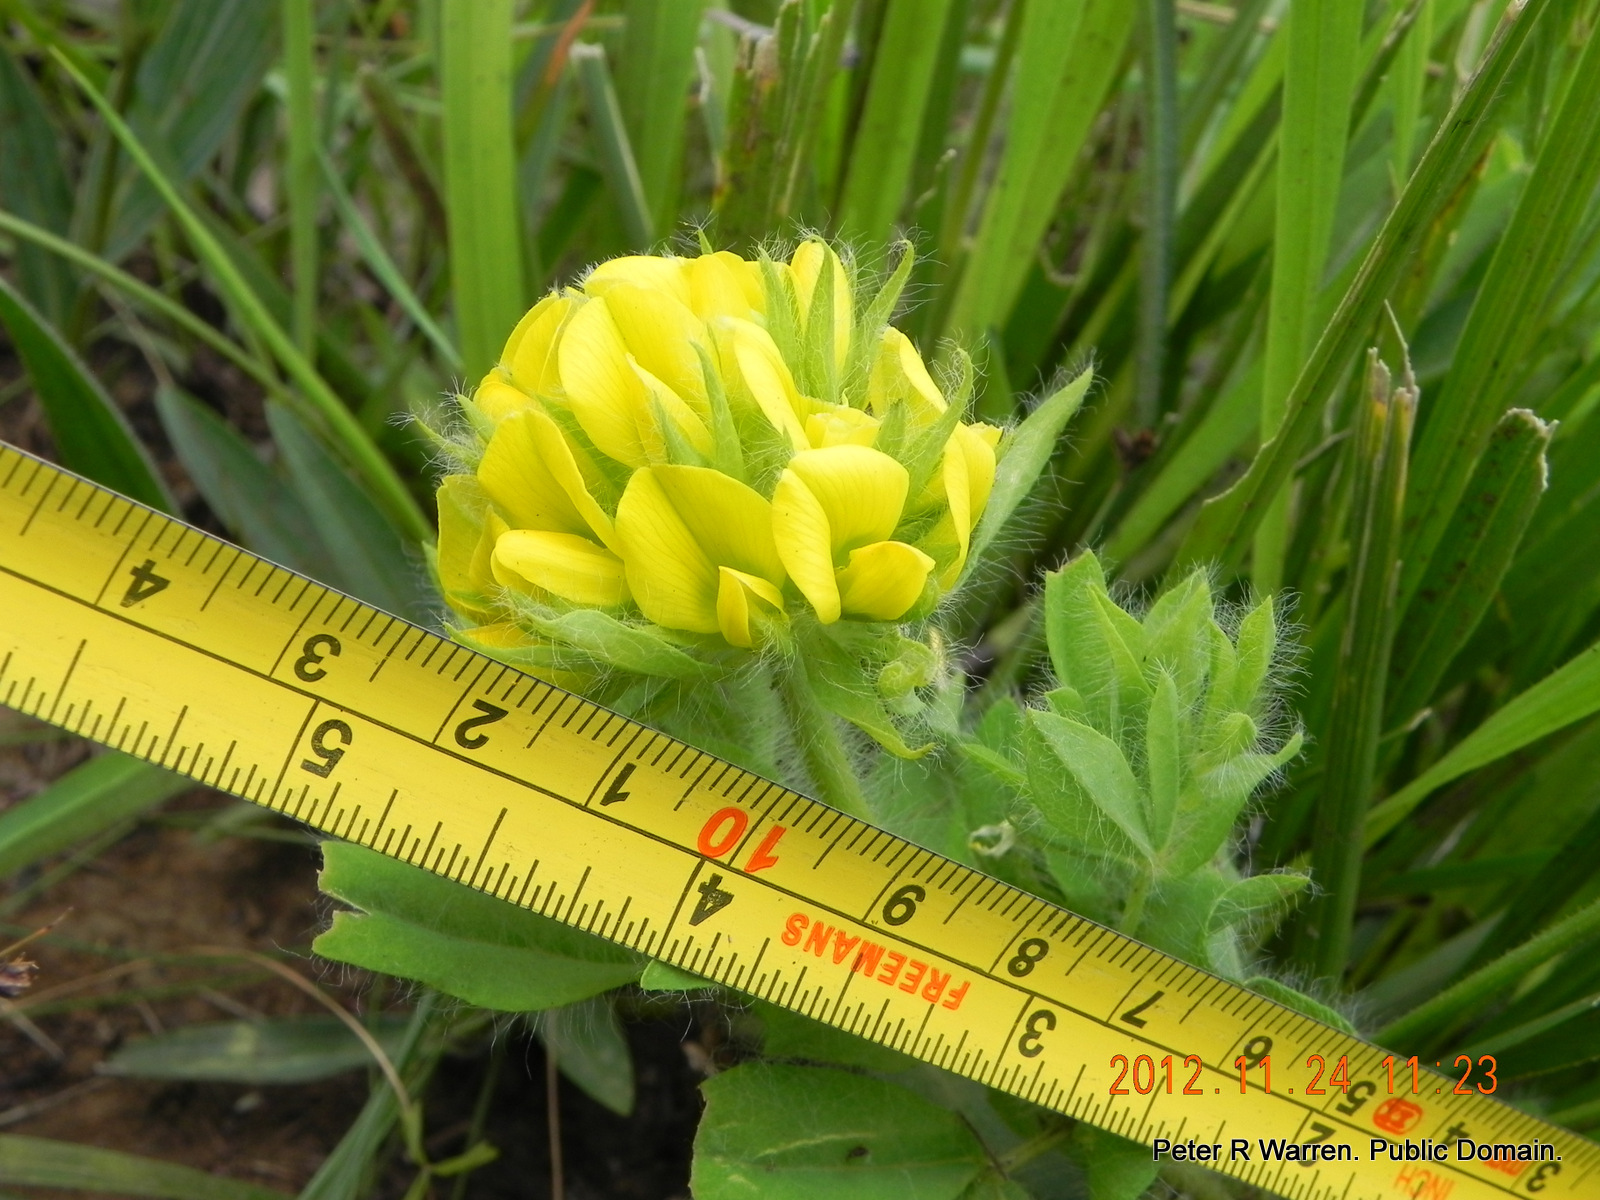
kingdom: Plantae
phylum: Tracheophyta
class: Magnoliopsida
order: Fabales
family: Fabaceae
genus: Leobordea
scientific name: Leobordea pulchra
